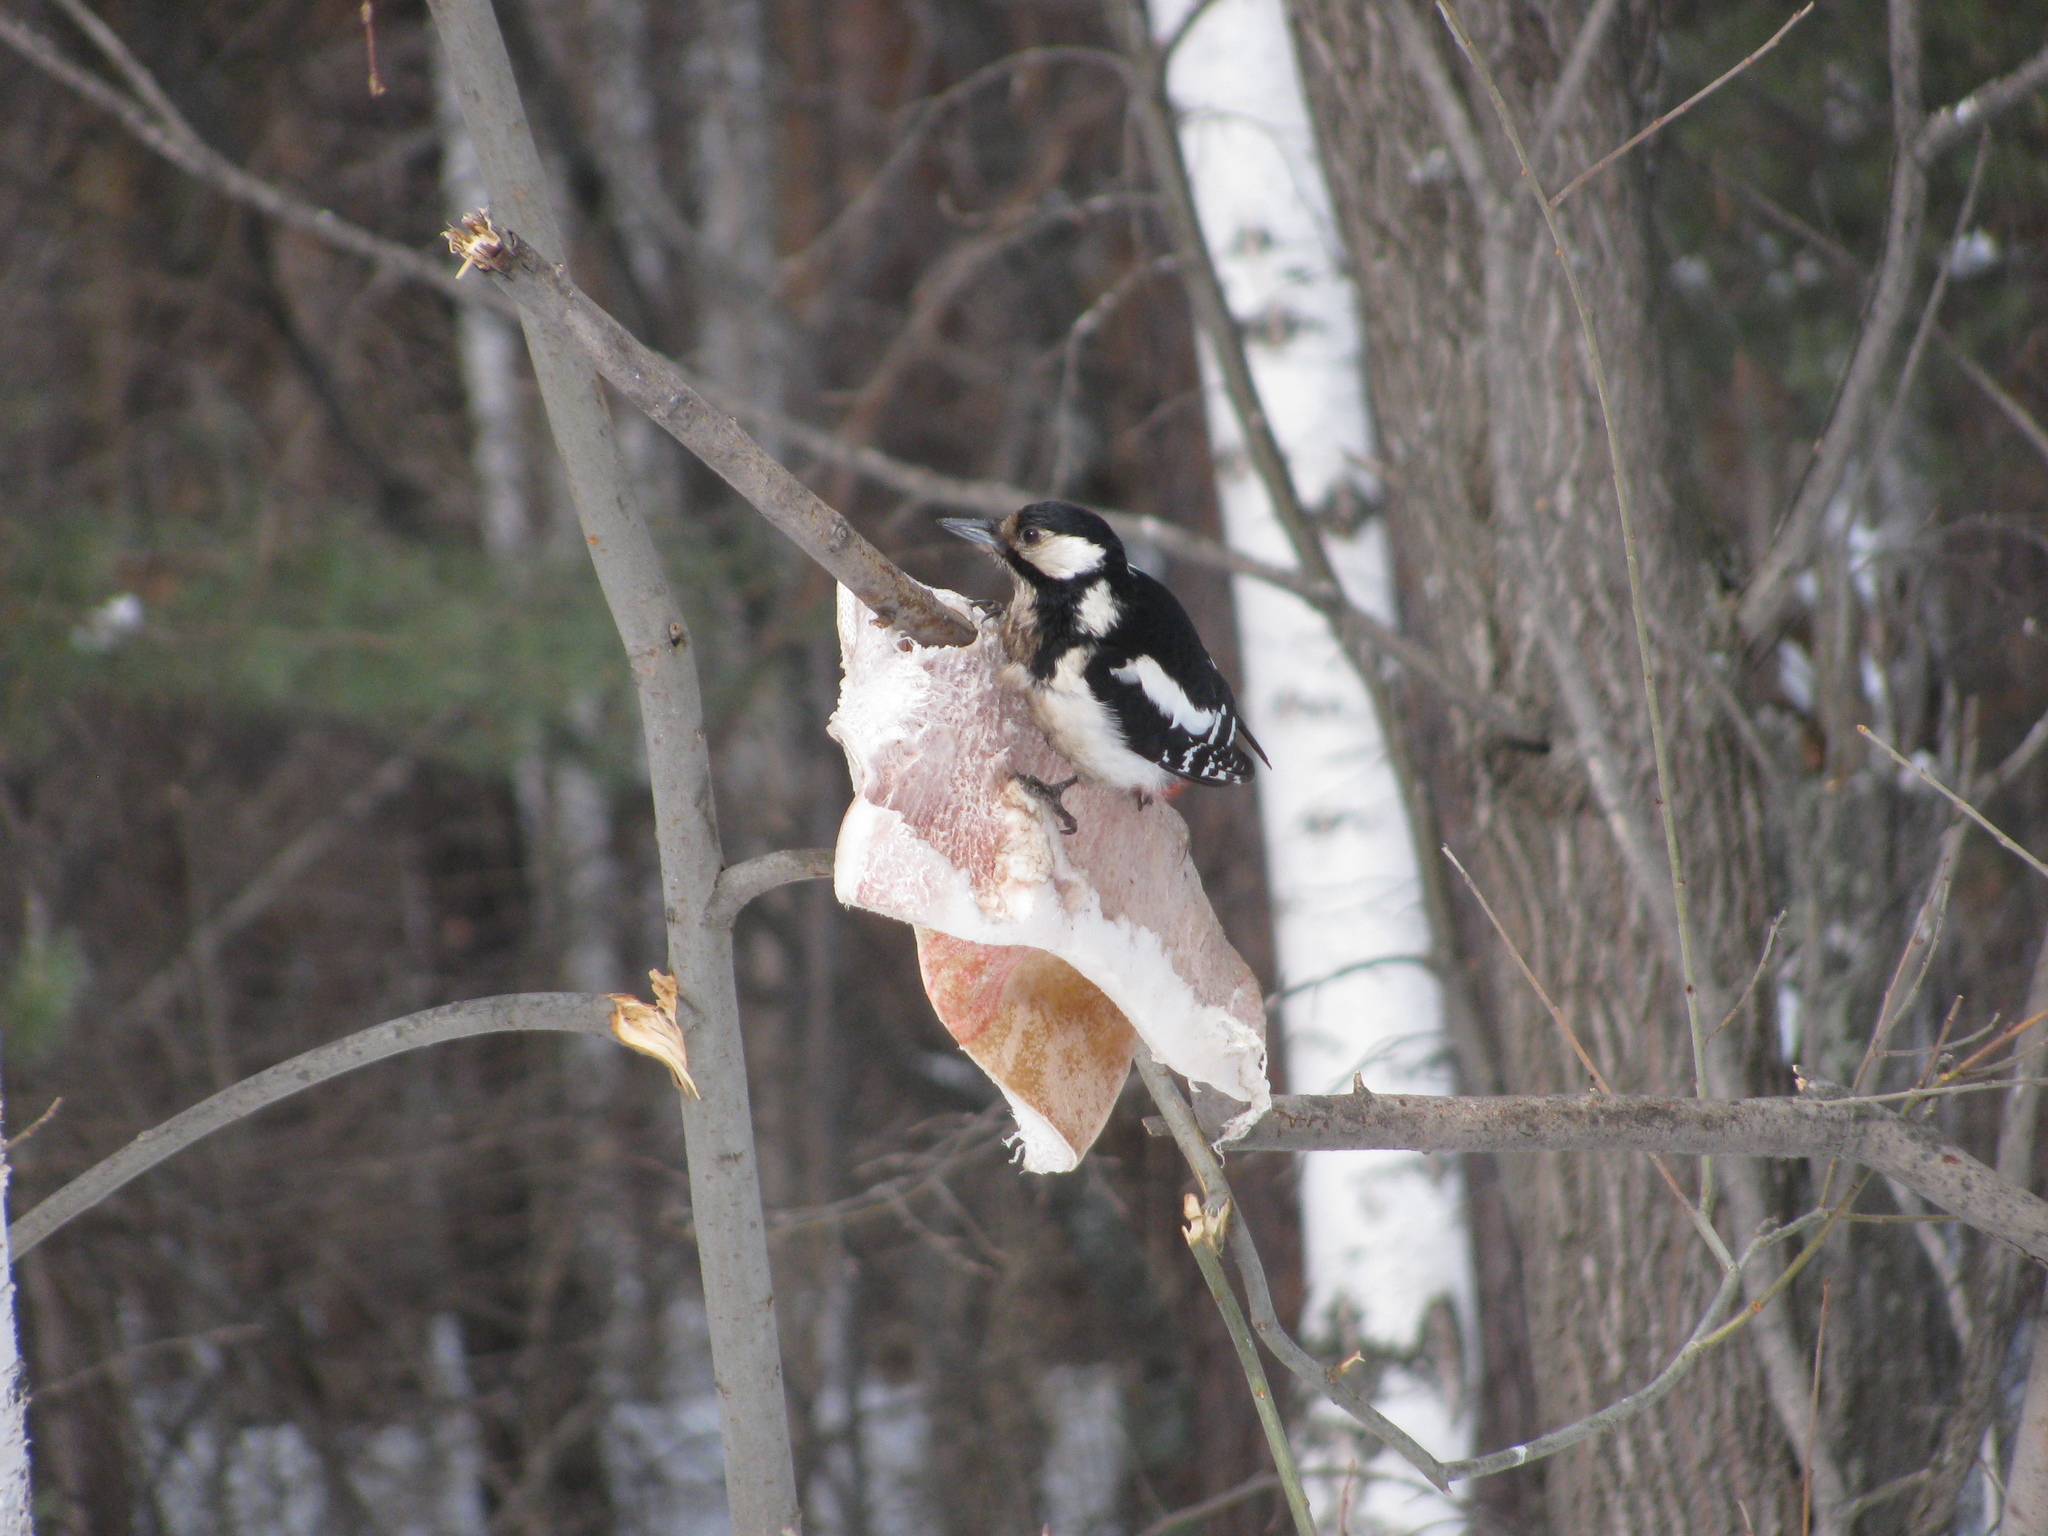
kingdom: Animalia
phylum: Chordata
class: Aves
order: Piciformes
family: Picidae
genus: Dendrocopos
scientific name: Dendrocopos major
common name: Great spotted woodpecker
